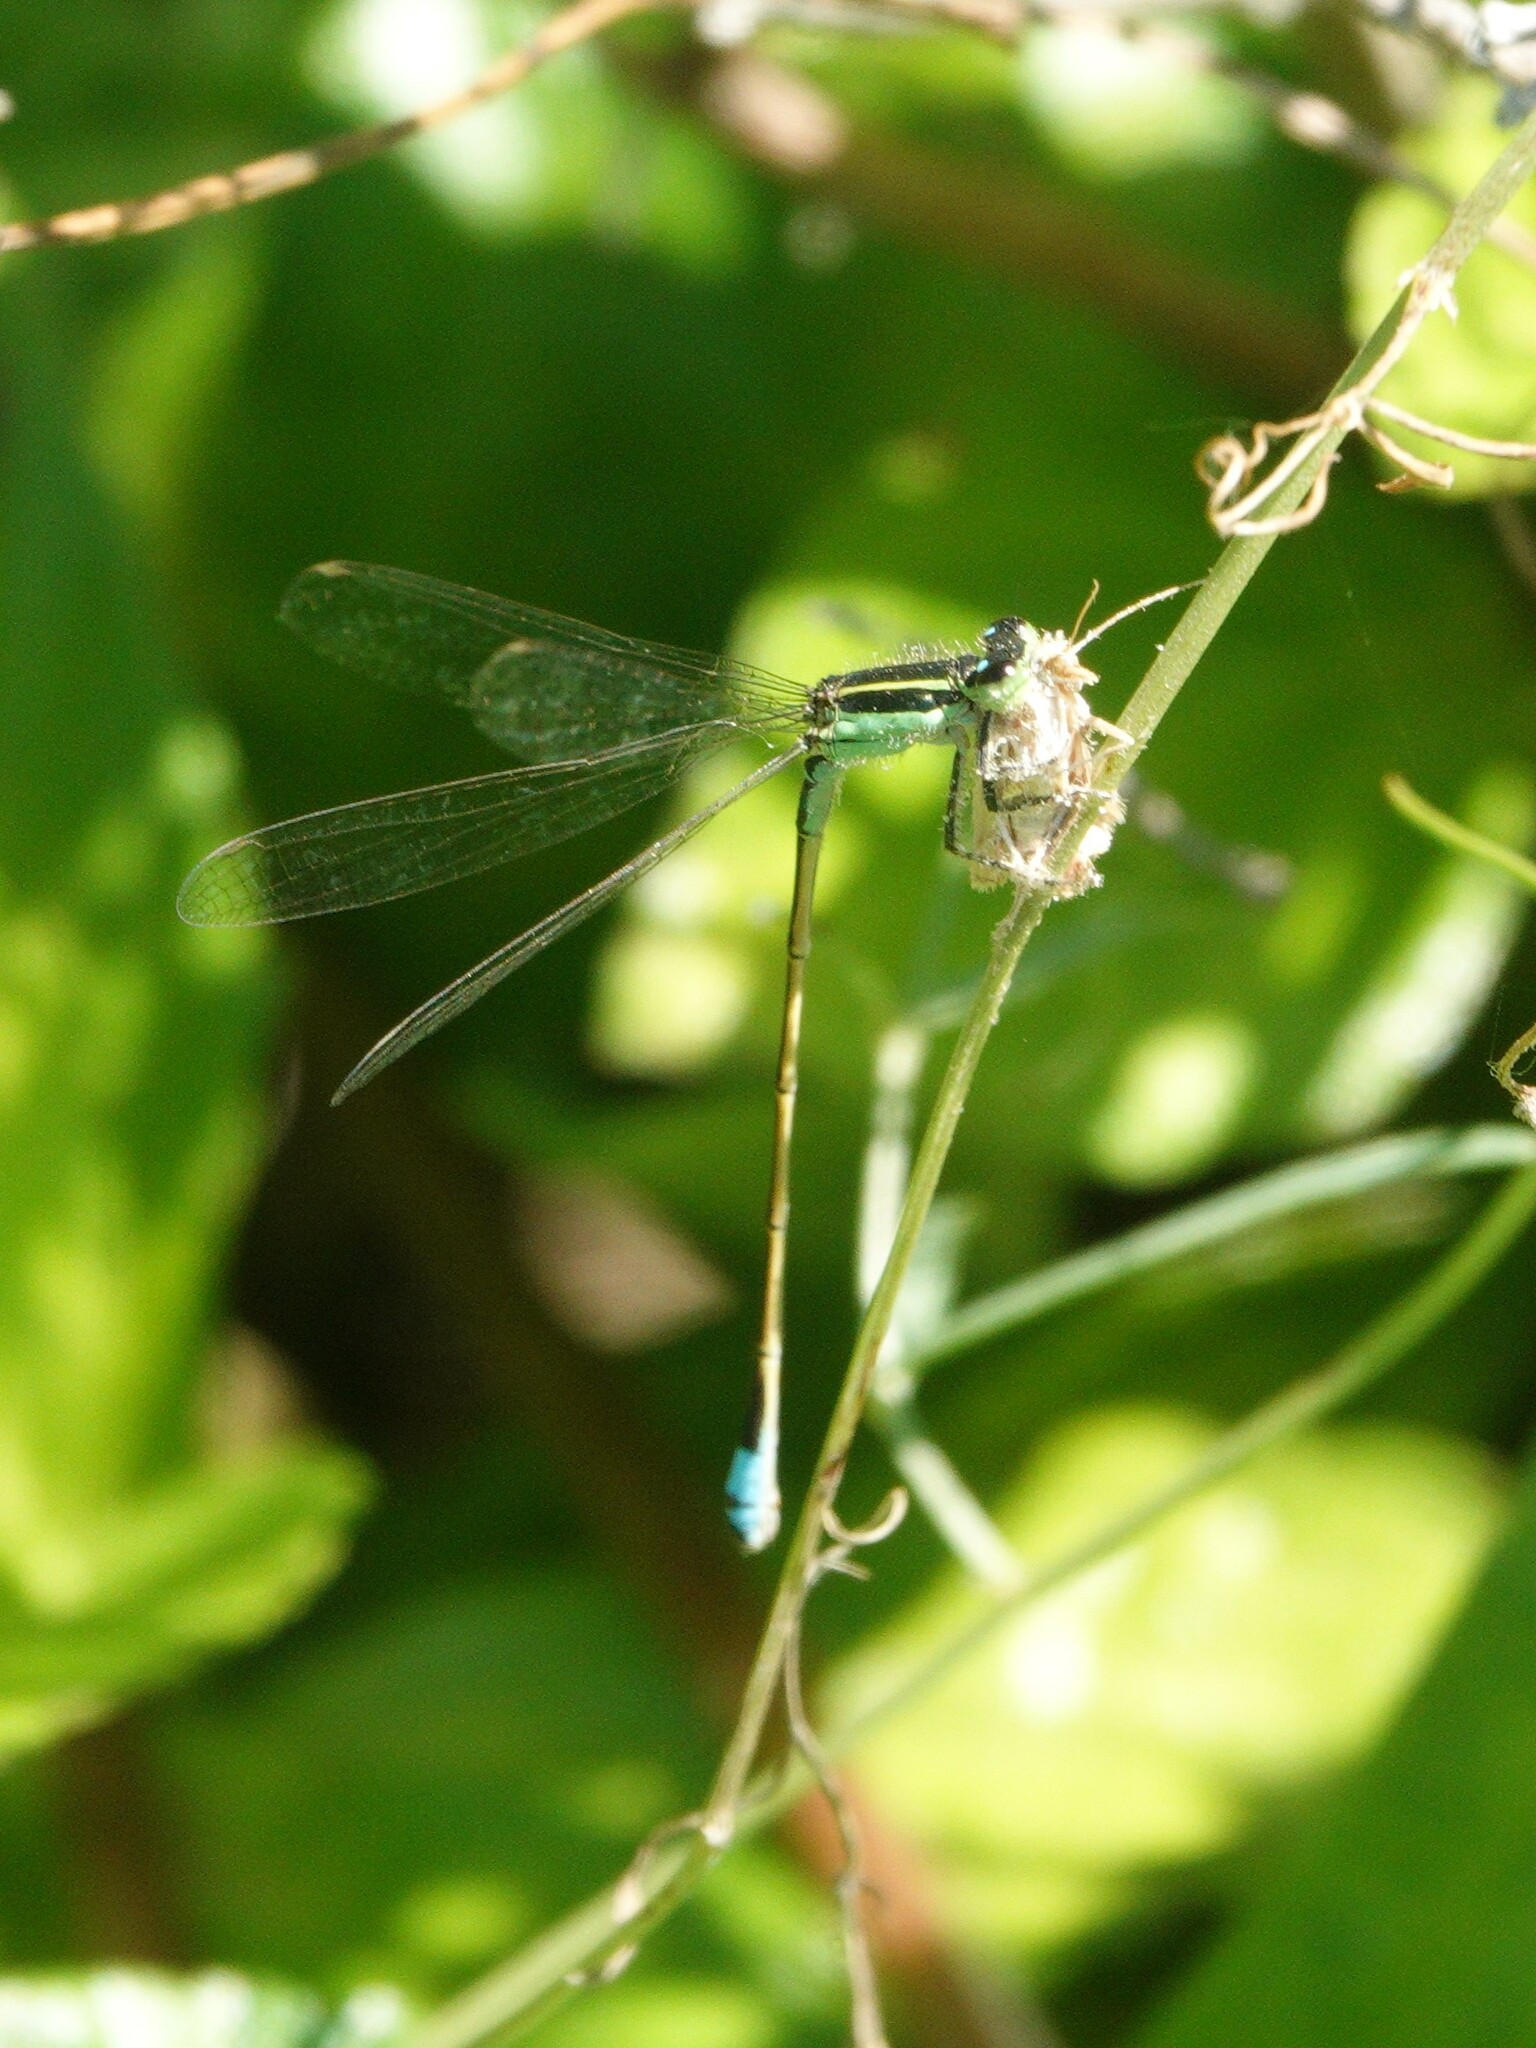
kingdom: Animalia
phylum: Arthropoda
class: Insecta
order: Odonata
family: Coenagrionidae
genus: Ischnura
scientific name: Ischnura ramburii
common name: Rambur's forktail
